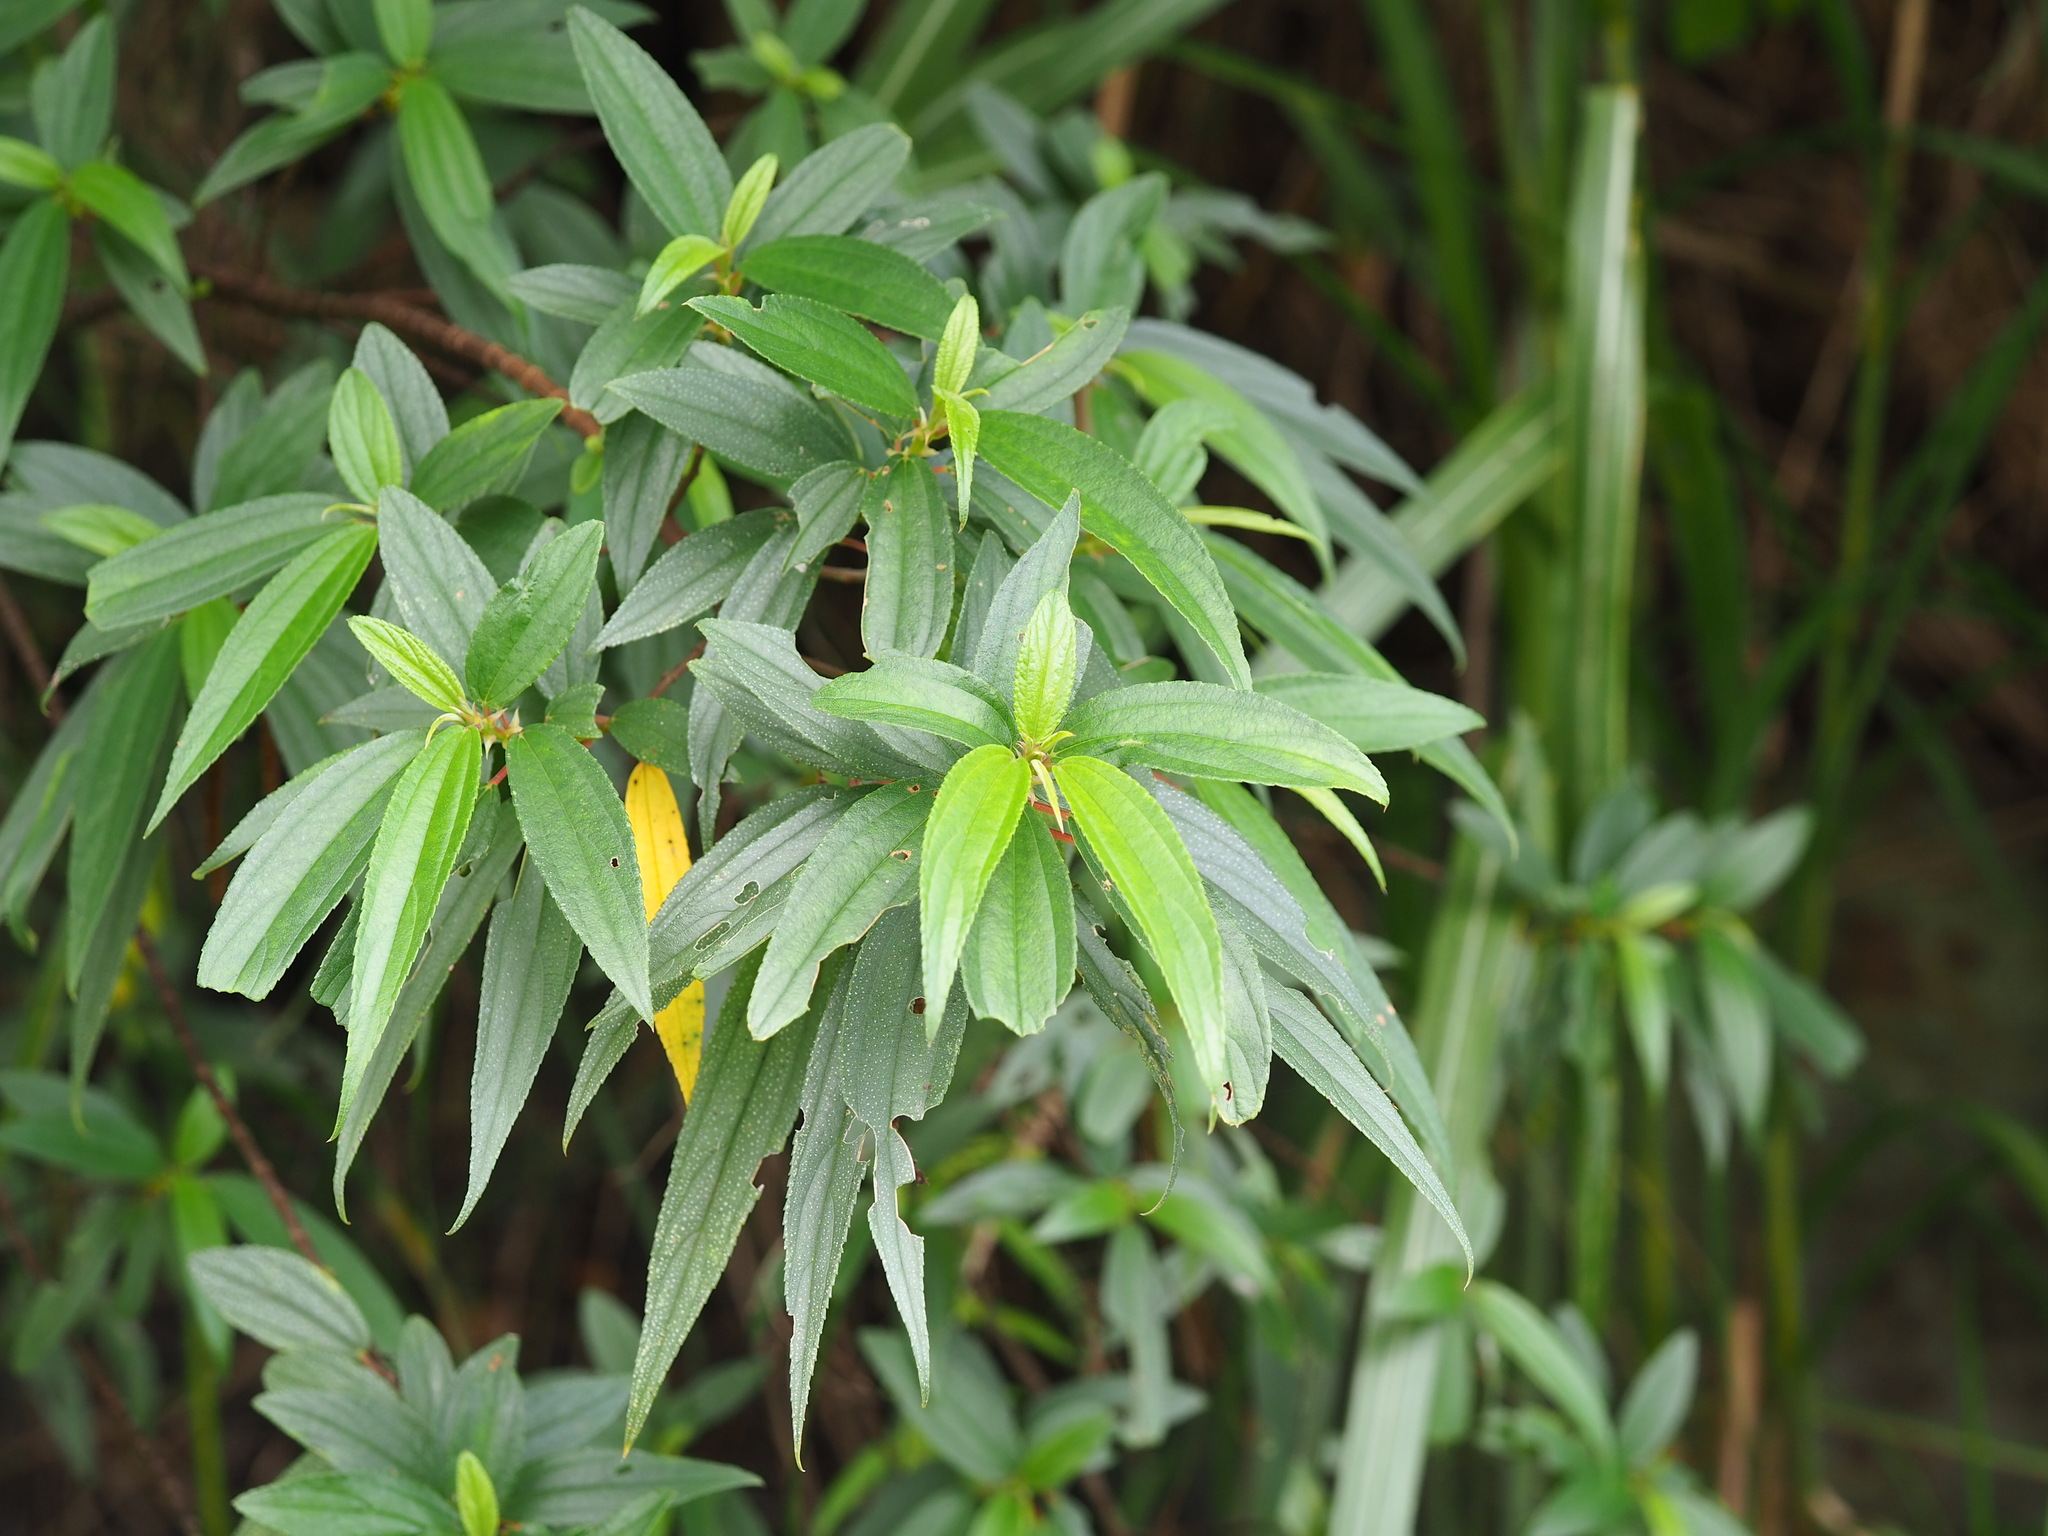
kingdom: Plantae
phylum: Tracheophyta
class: Magnoliopsida
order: Rosales
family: Urticaceae
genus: Boehmeria
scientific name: Boehmeria densiflora
